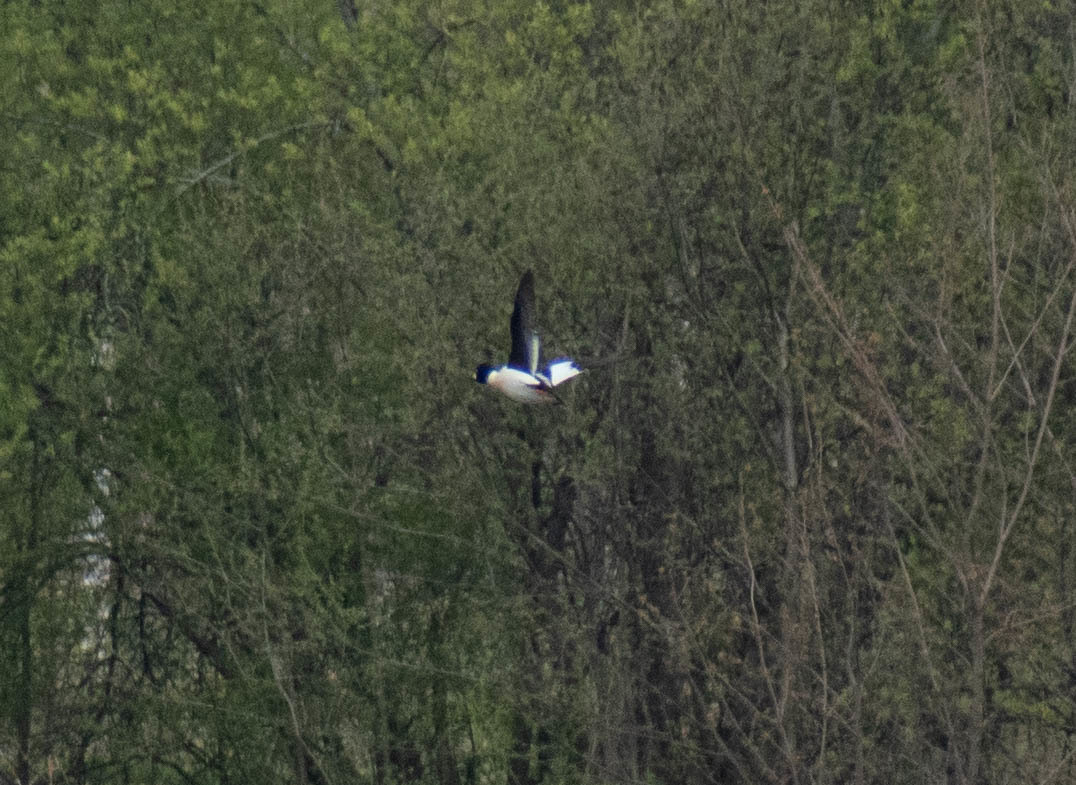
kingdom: Animalia
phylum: Chordata
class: Aves
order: Anseriformes
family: Anatidae
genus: Bucephala
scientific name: Bucephala clangula
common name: Common goldeneye
